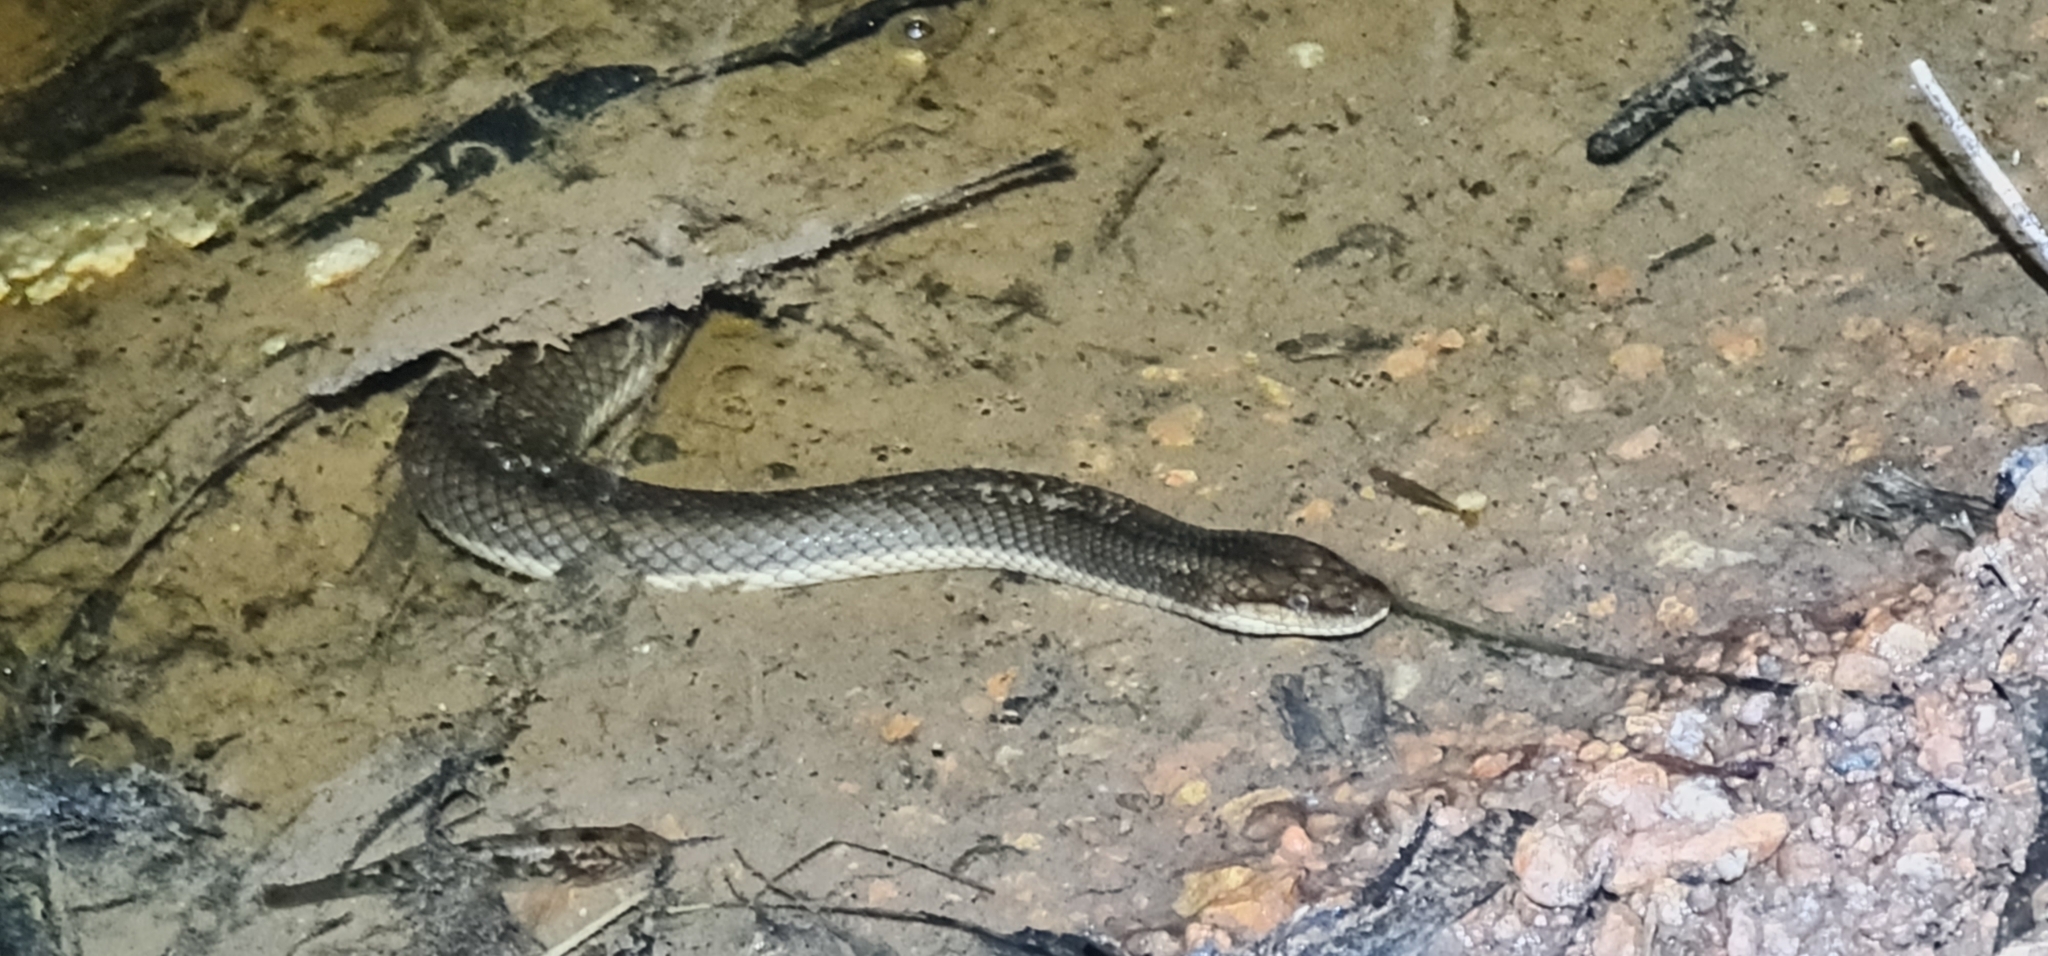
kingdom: Animalia
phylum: Chordata
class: Squamata
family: Homalopsidae
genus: Pseudoferania
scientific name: Pseudoferania polylepis
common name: Smooth watersnake
